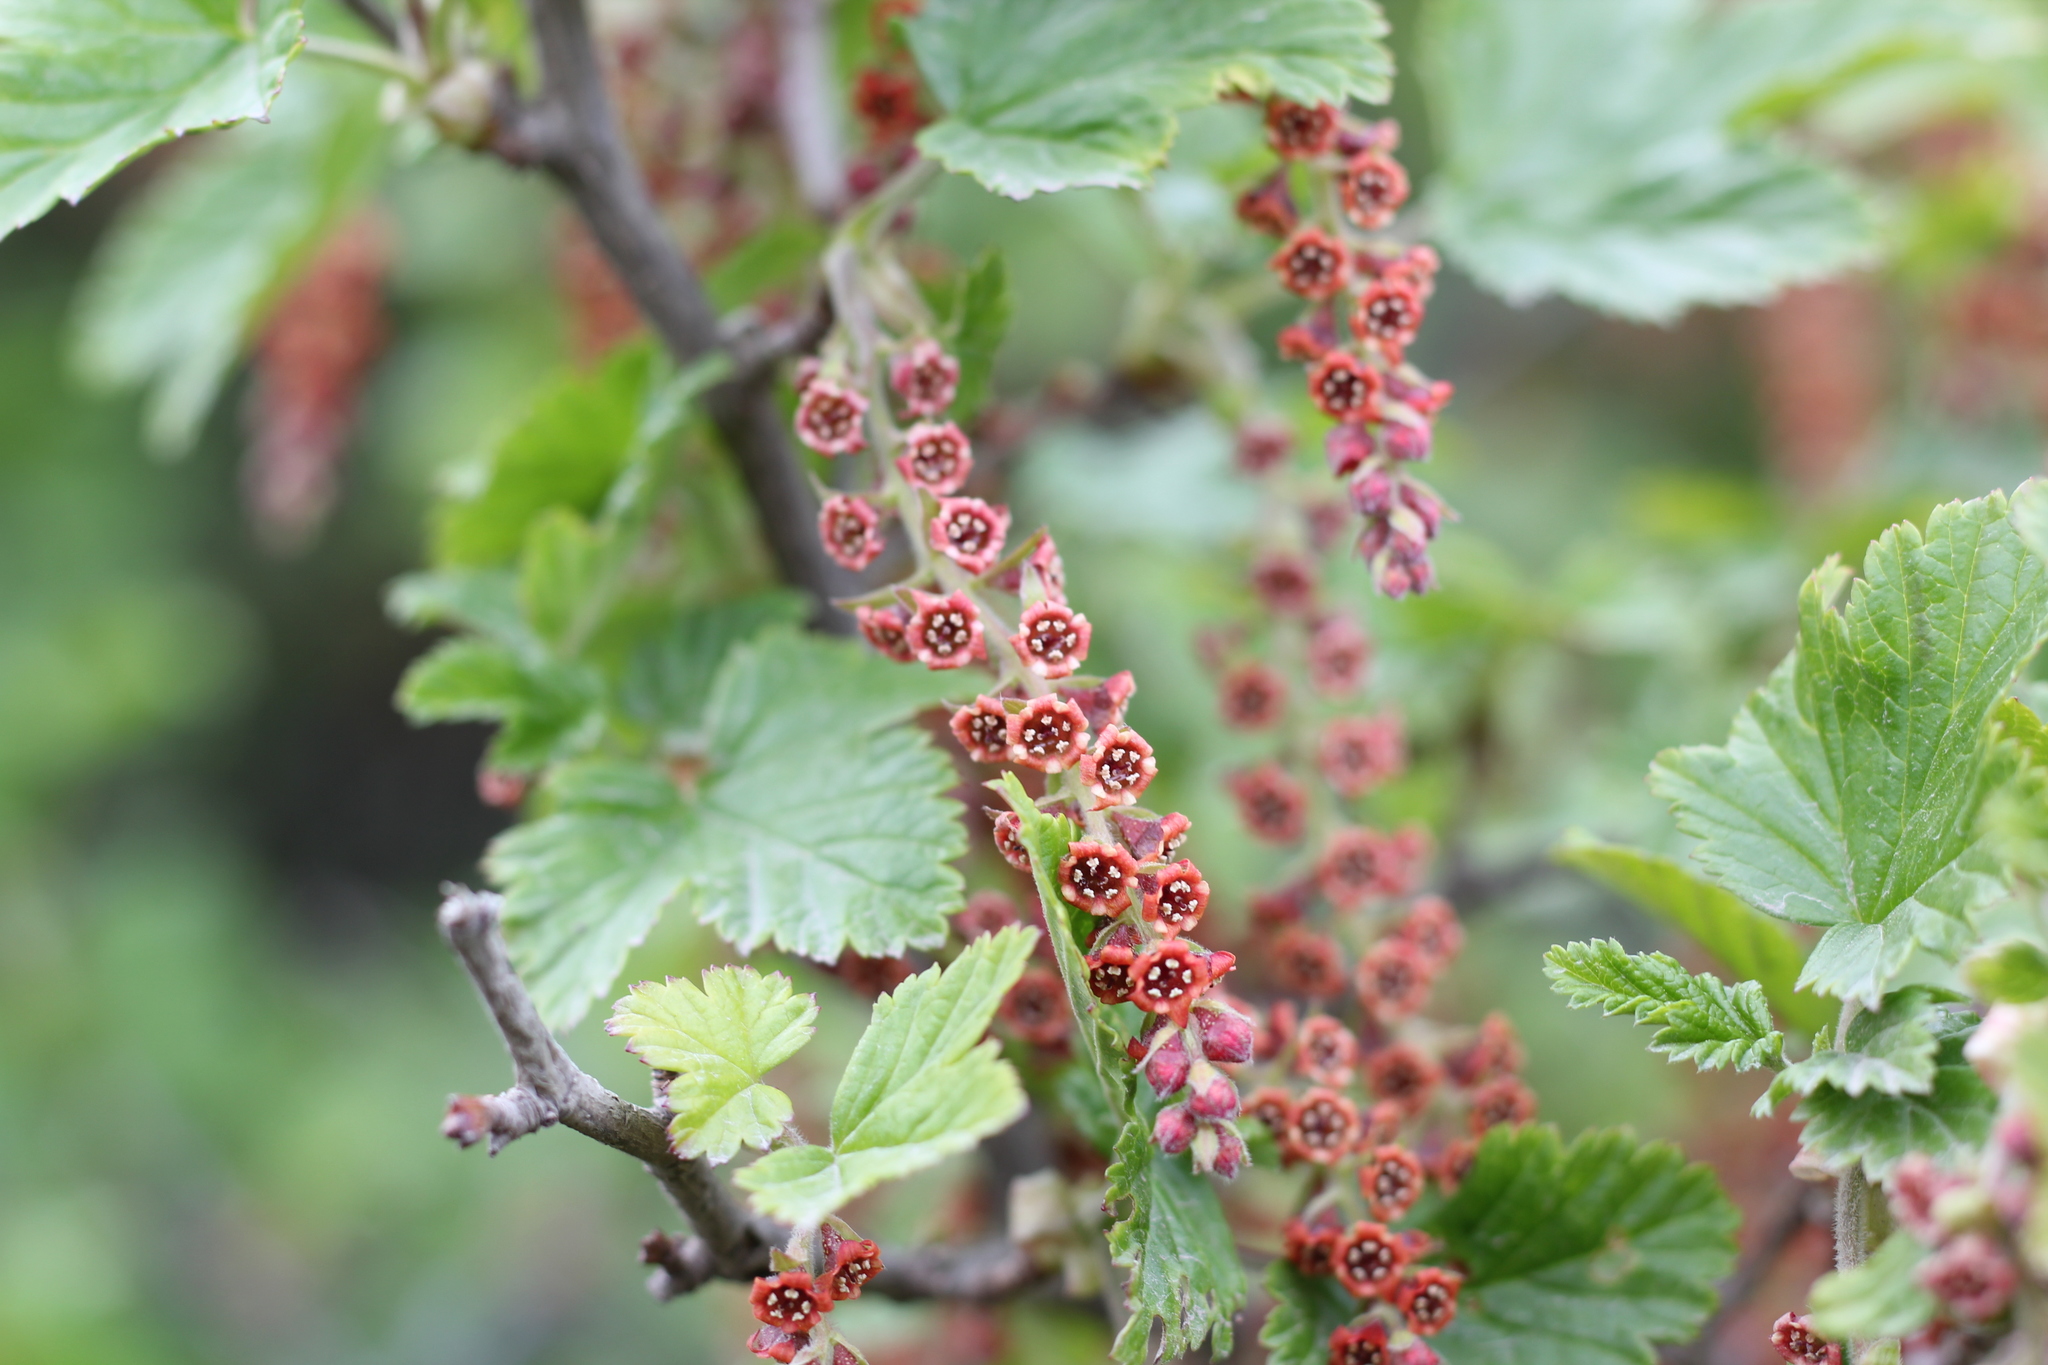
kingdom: Plantae
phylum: Tracheophyta
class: Magnoliopsida
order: Saxifragales
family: Grossulariaceae
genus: Ribes
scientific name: Ribes magellanicum
